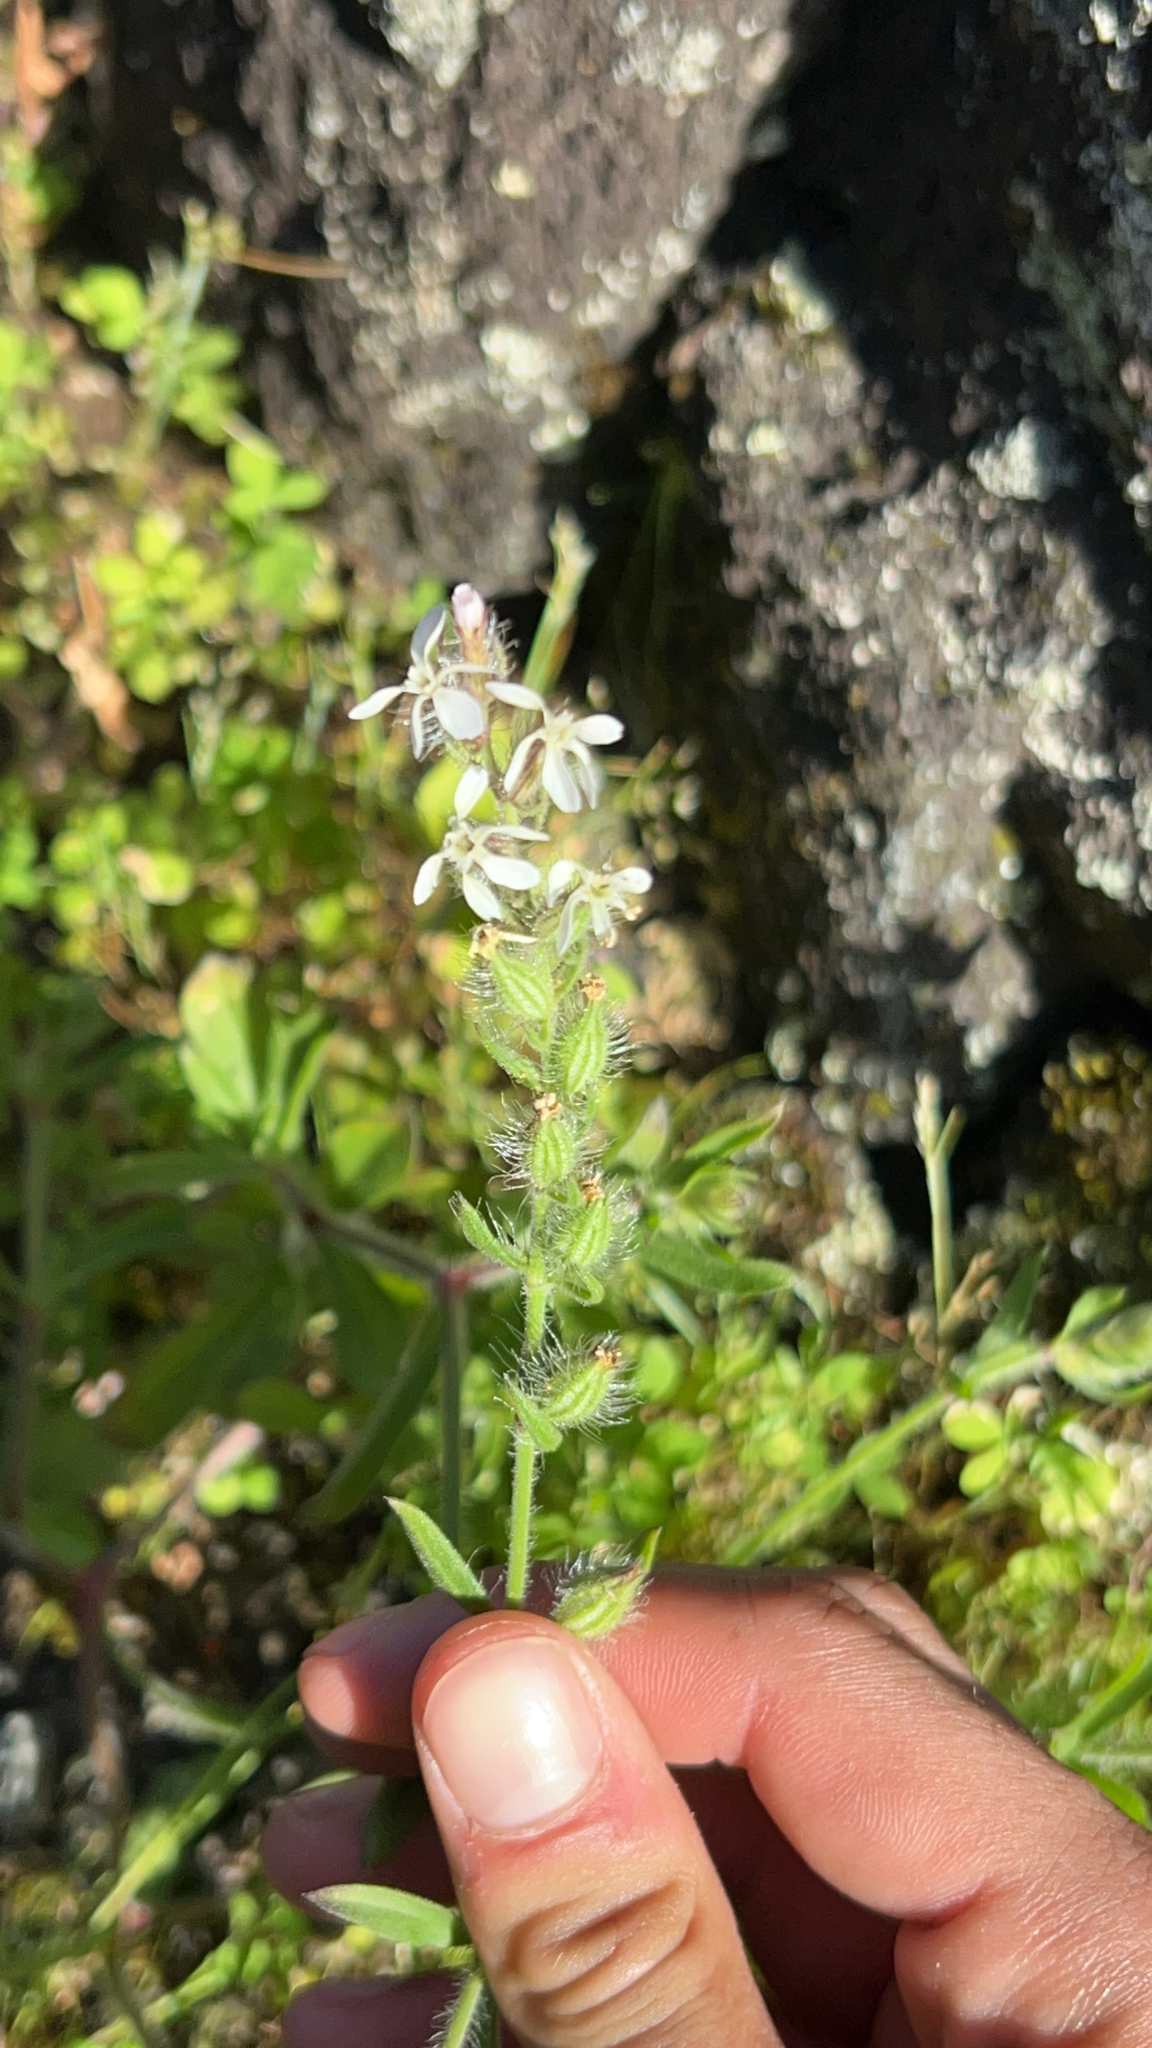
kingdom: Plantae
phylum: Tracheophyta
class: Magnoliopsida
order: Caryophyllales
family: Caryophyllaceae
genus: Silene
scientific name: Silene gallica
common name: Small-flowered catchfly
